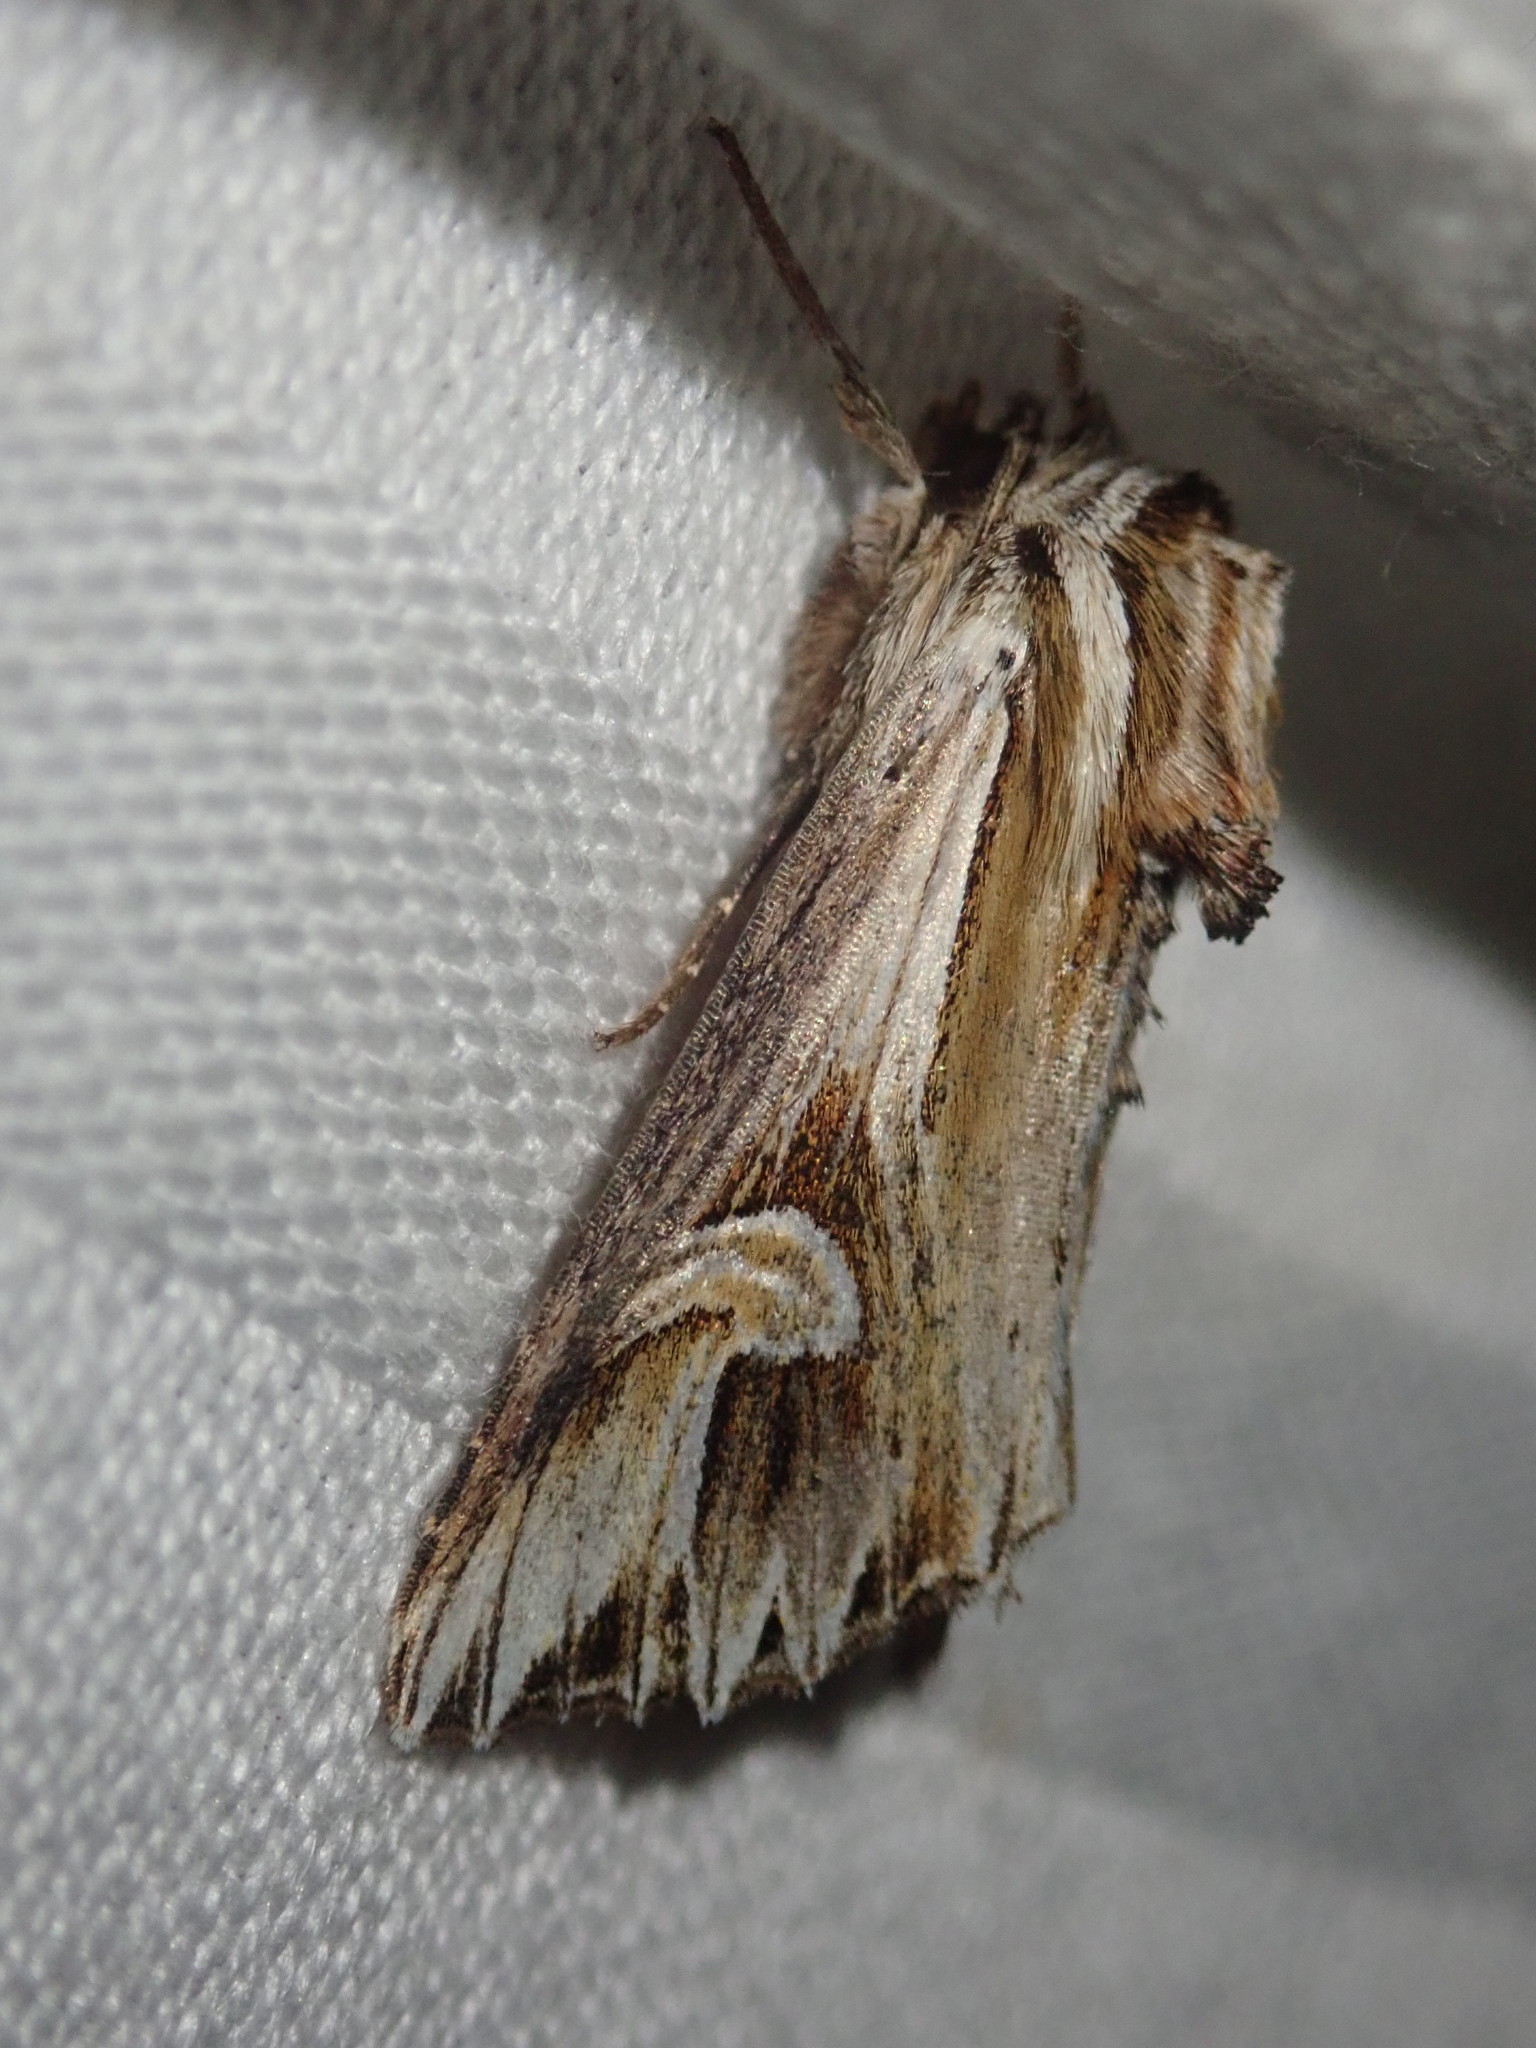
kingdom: Animalia
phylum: Arthropoda
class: Insecta
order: Lepidoptera
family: Noctuidae
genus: Actinotia
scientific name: Actinotia polyodon
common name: Purple cloud
